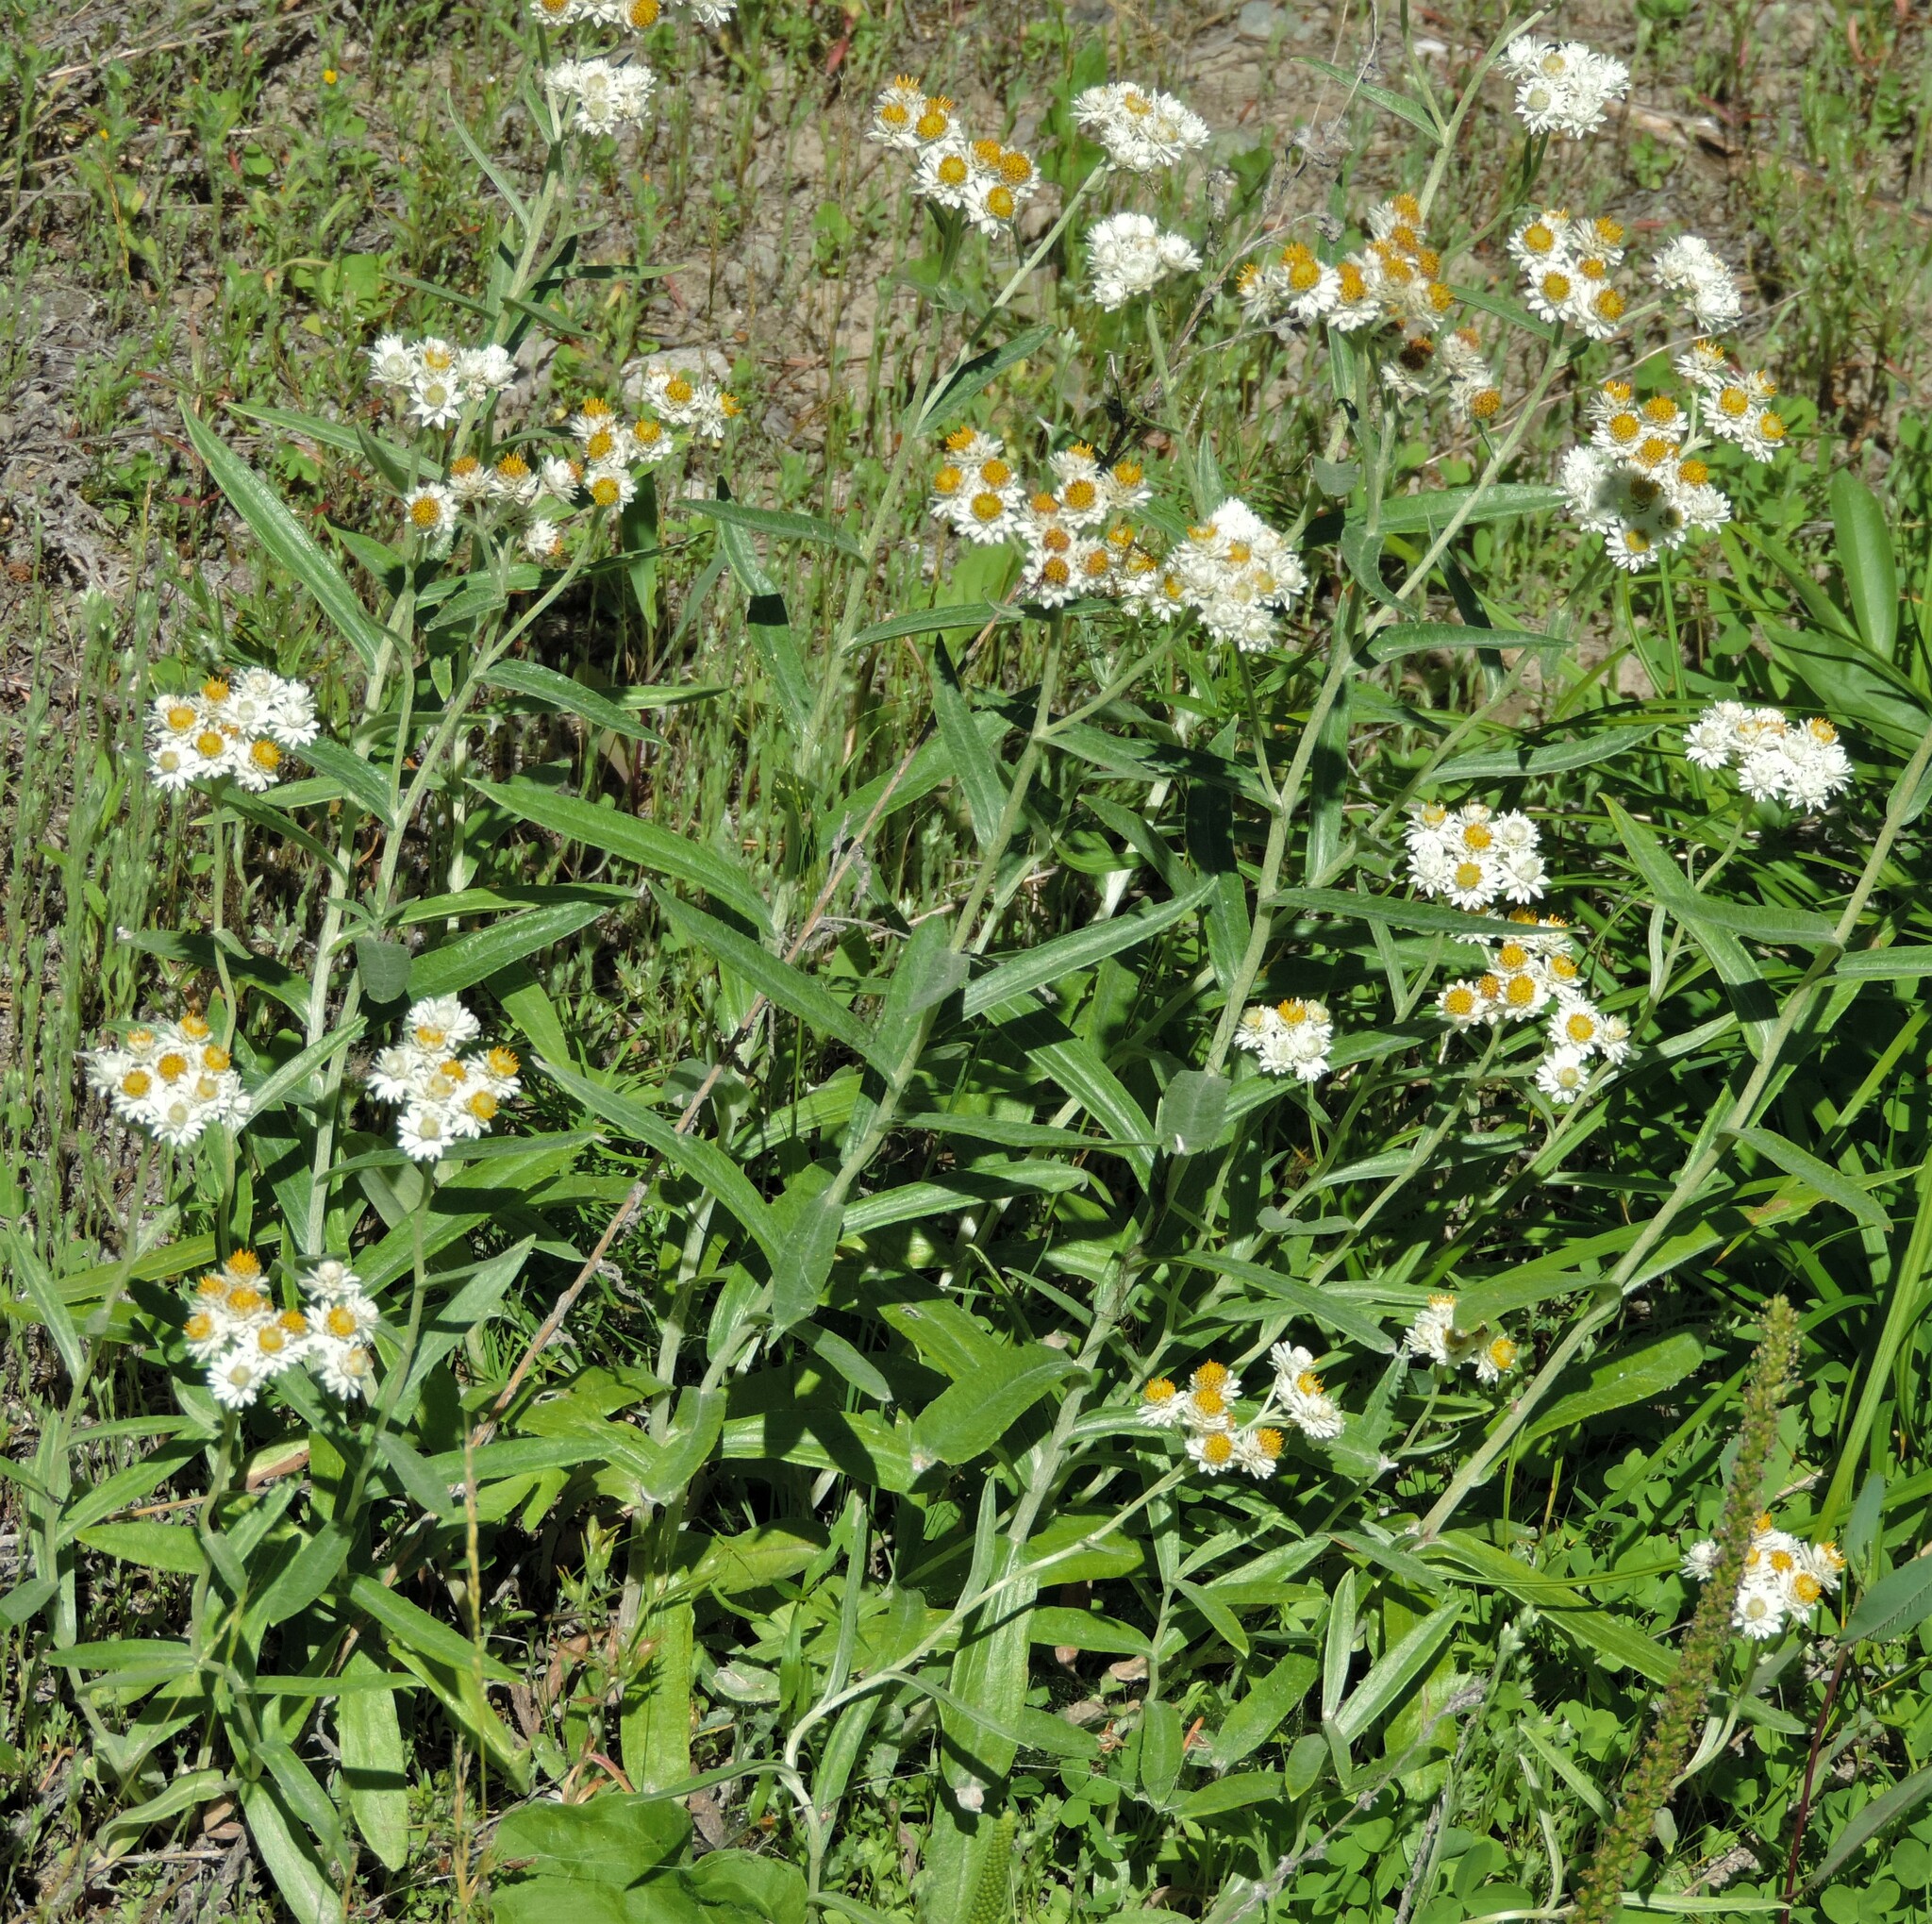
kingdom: Plantae
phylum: Tracheophyta
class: Magnoliopsida
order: Asterales
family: Asteraceae
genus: Anaphalis
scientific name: Anaphalis margaritacea
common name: Pearly everlasting
